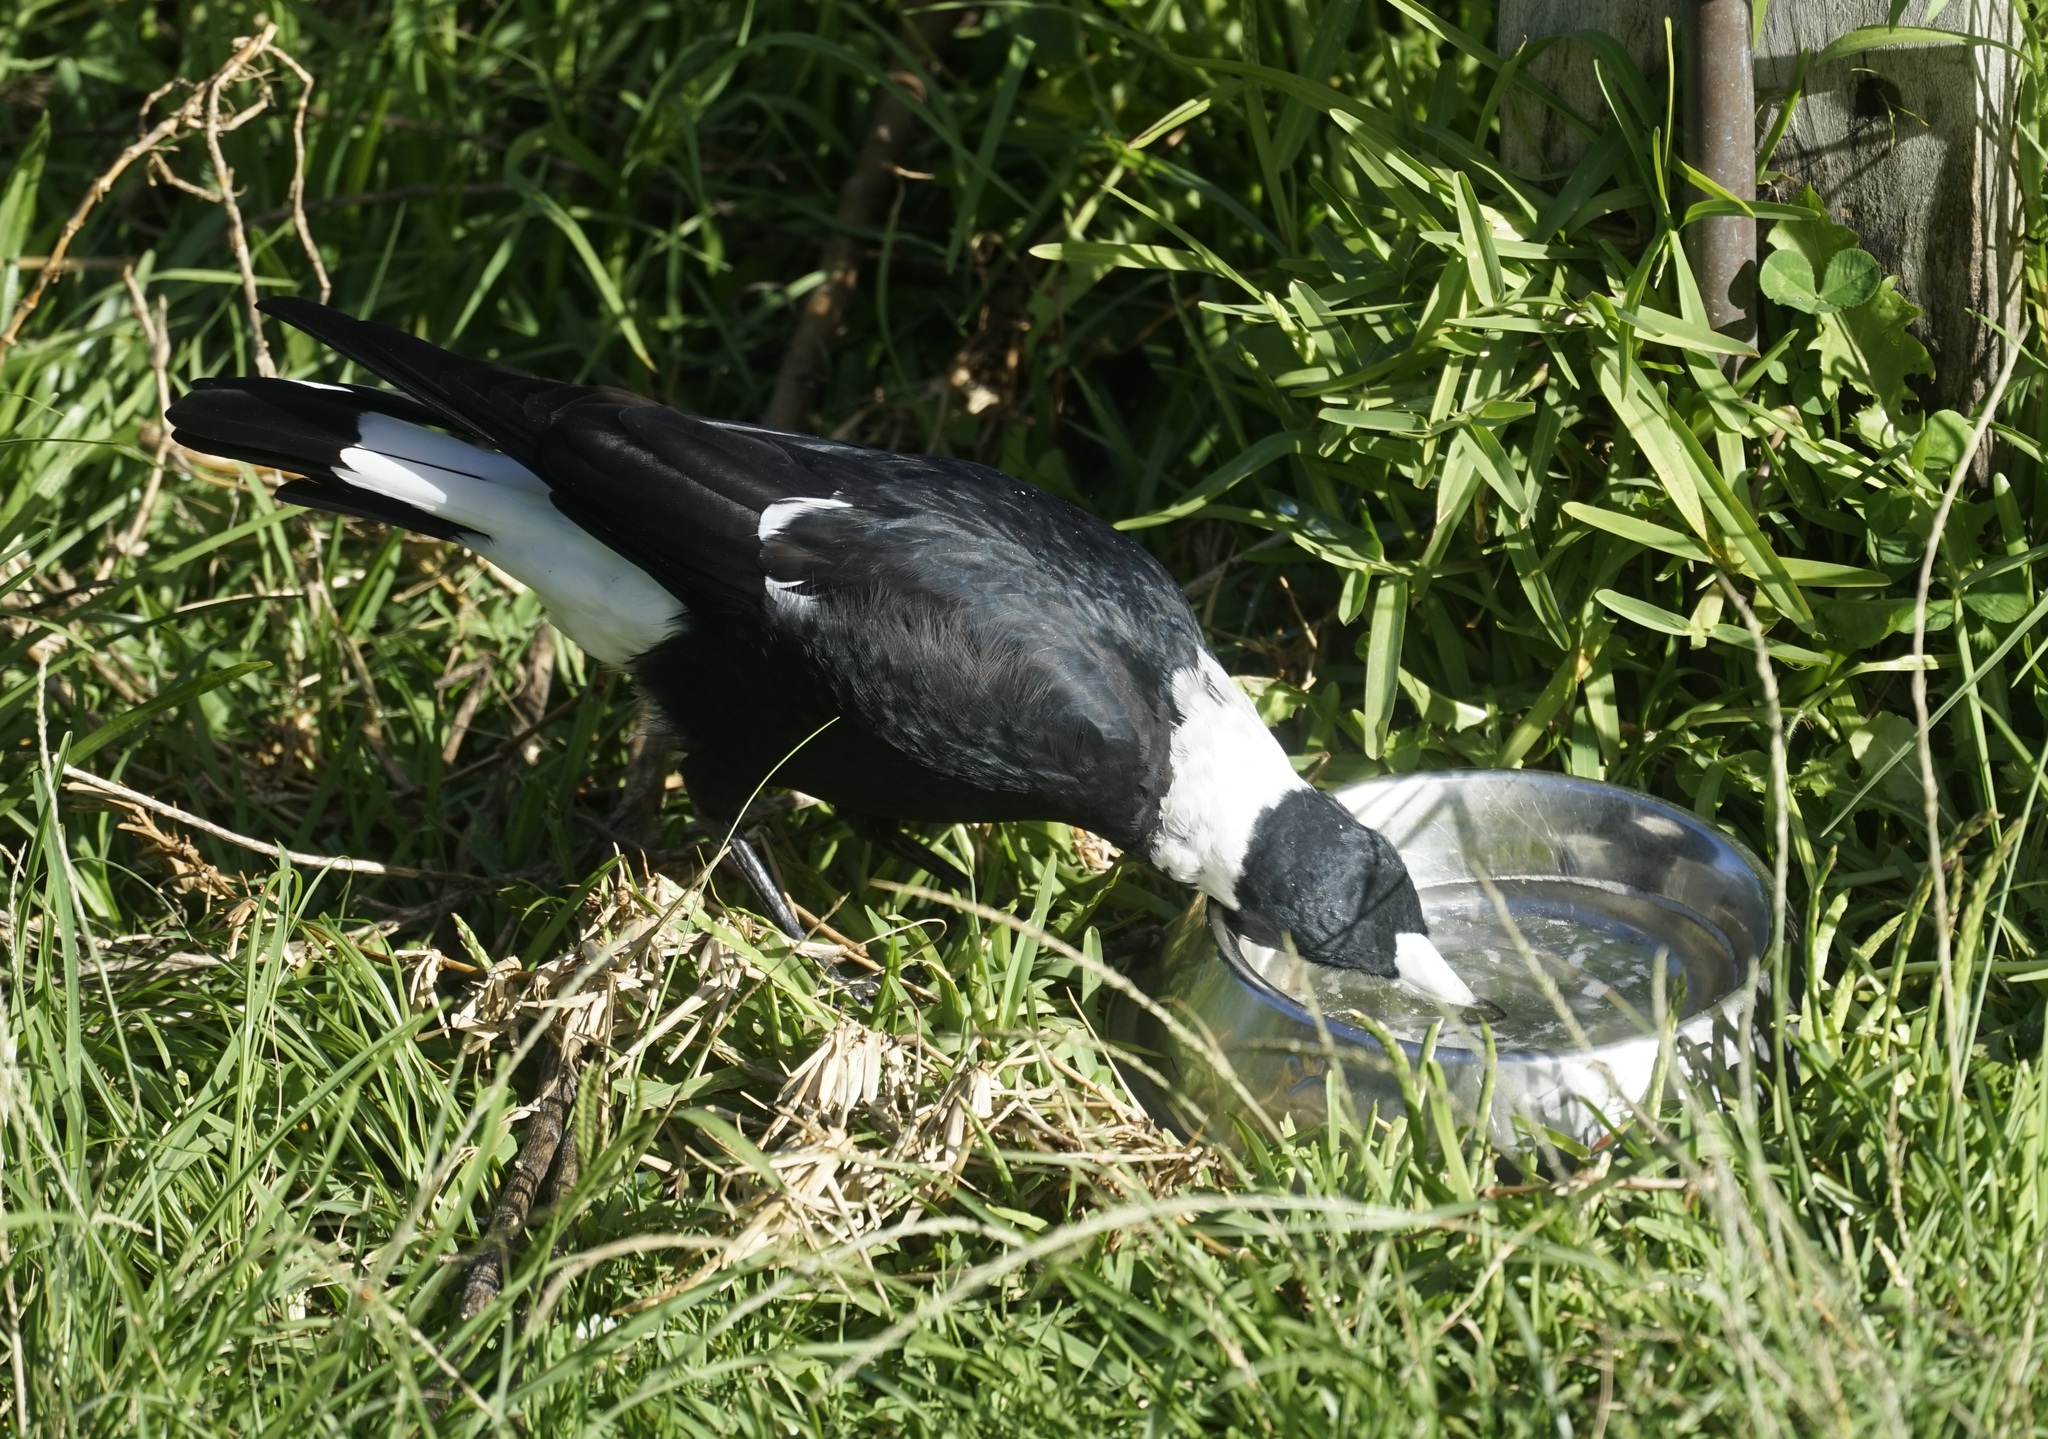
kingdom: Animalia
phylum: Chordata
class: Aves
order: Passeriformes
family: Cracticidae
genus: Gymnorhina
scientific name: Gymnorhina tibicen
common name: Australian magpie
